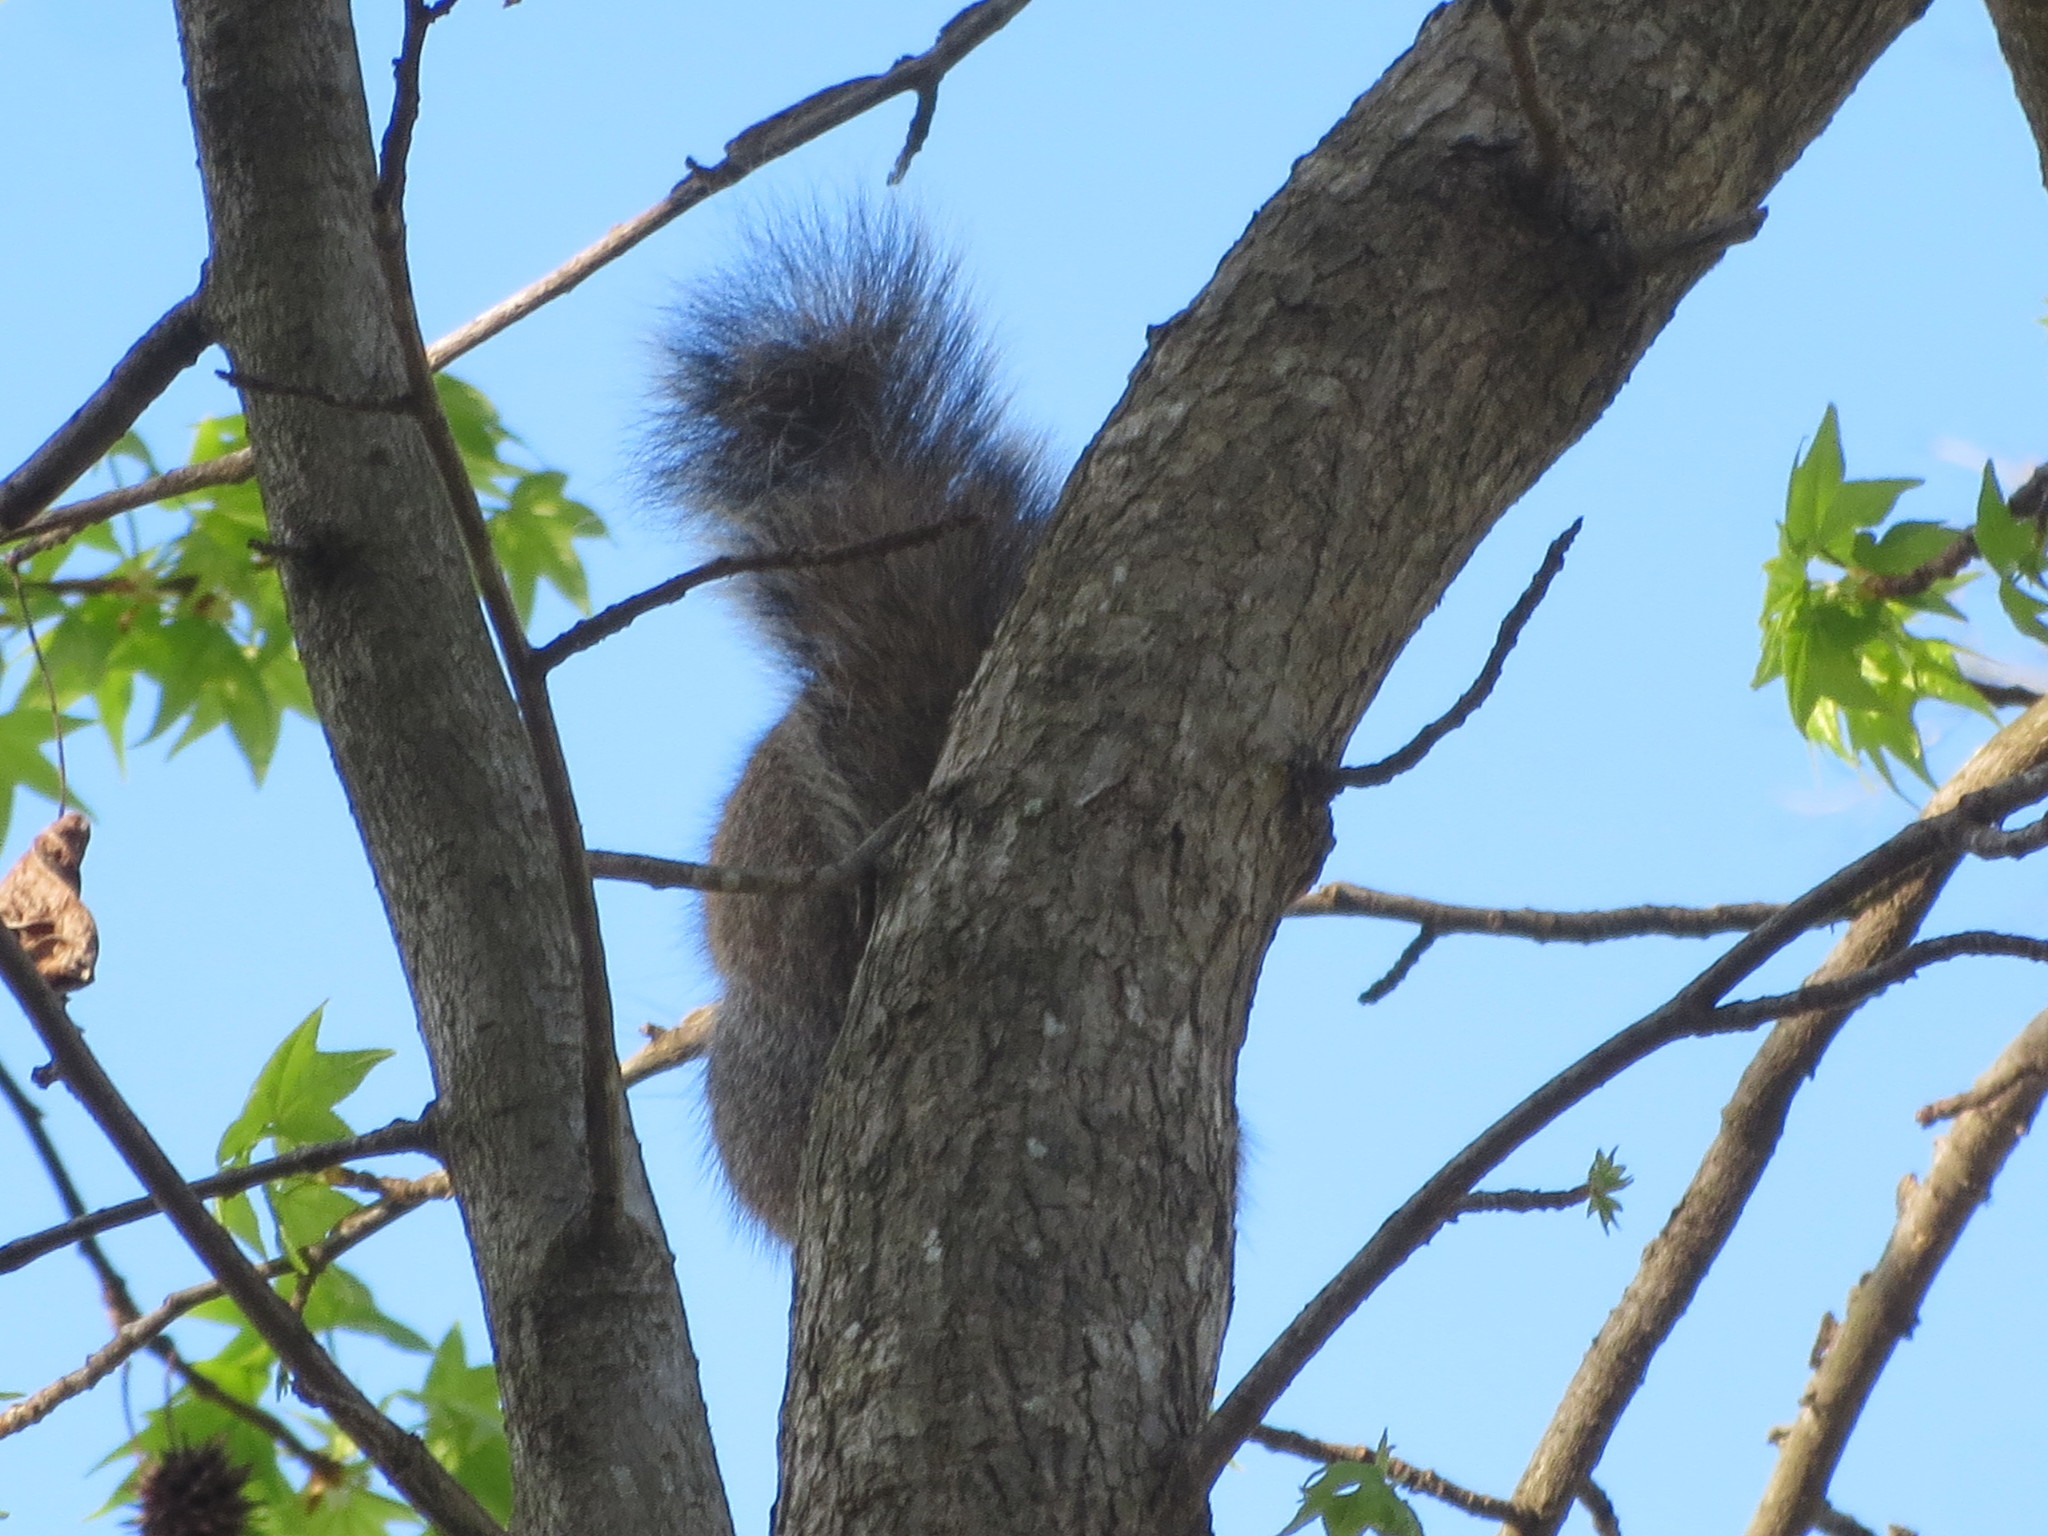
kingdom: Animalia
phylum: Chordata
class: Mammalia
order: Rodentia
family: Sciuridae
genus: Sciurus
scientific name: Sciurus carolinensis
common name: Eastern gray squirrel
